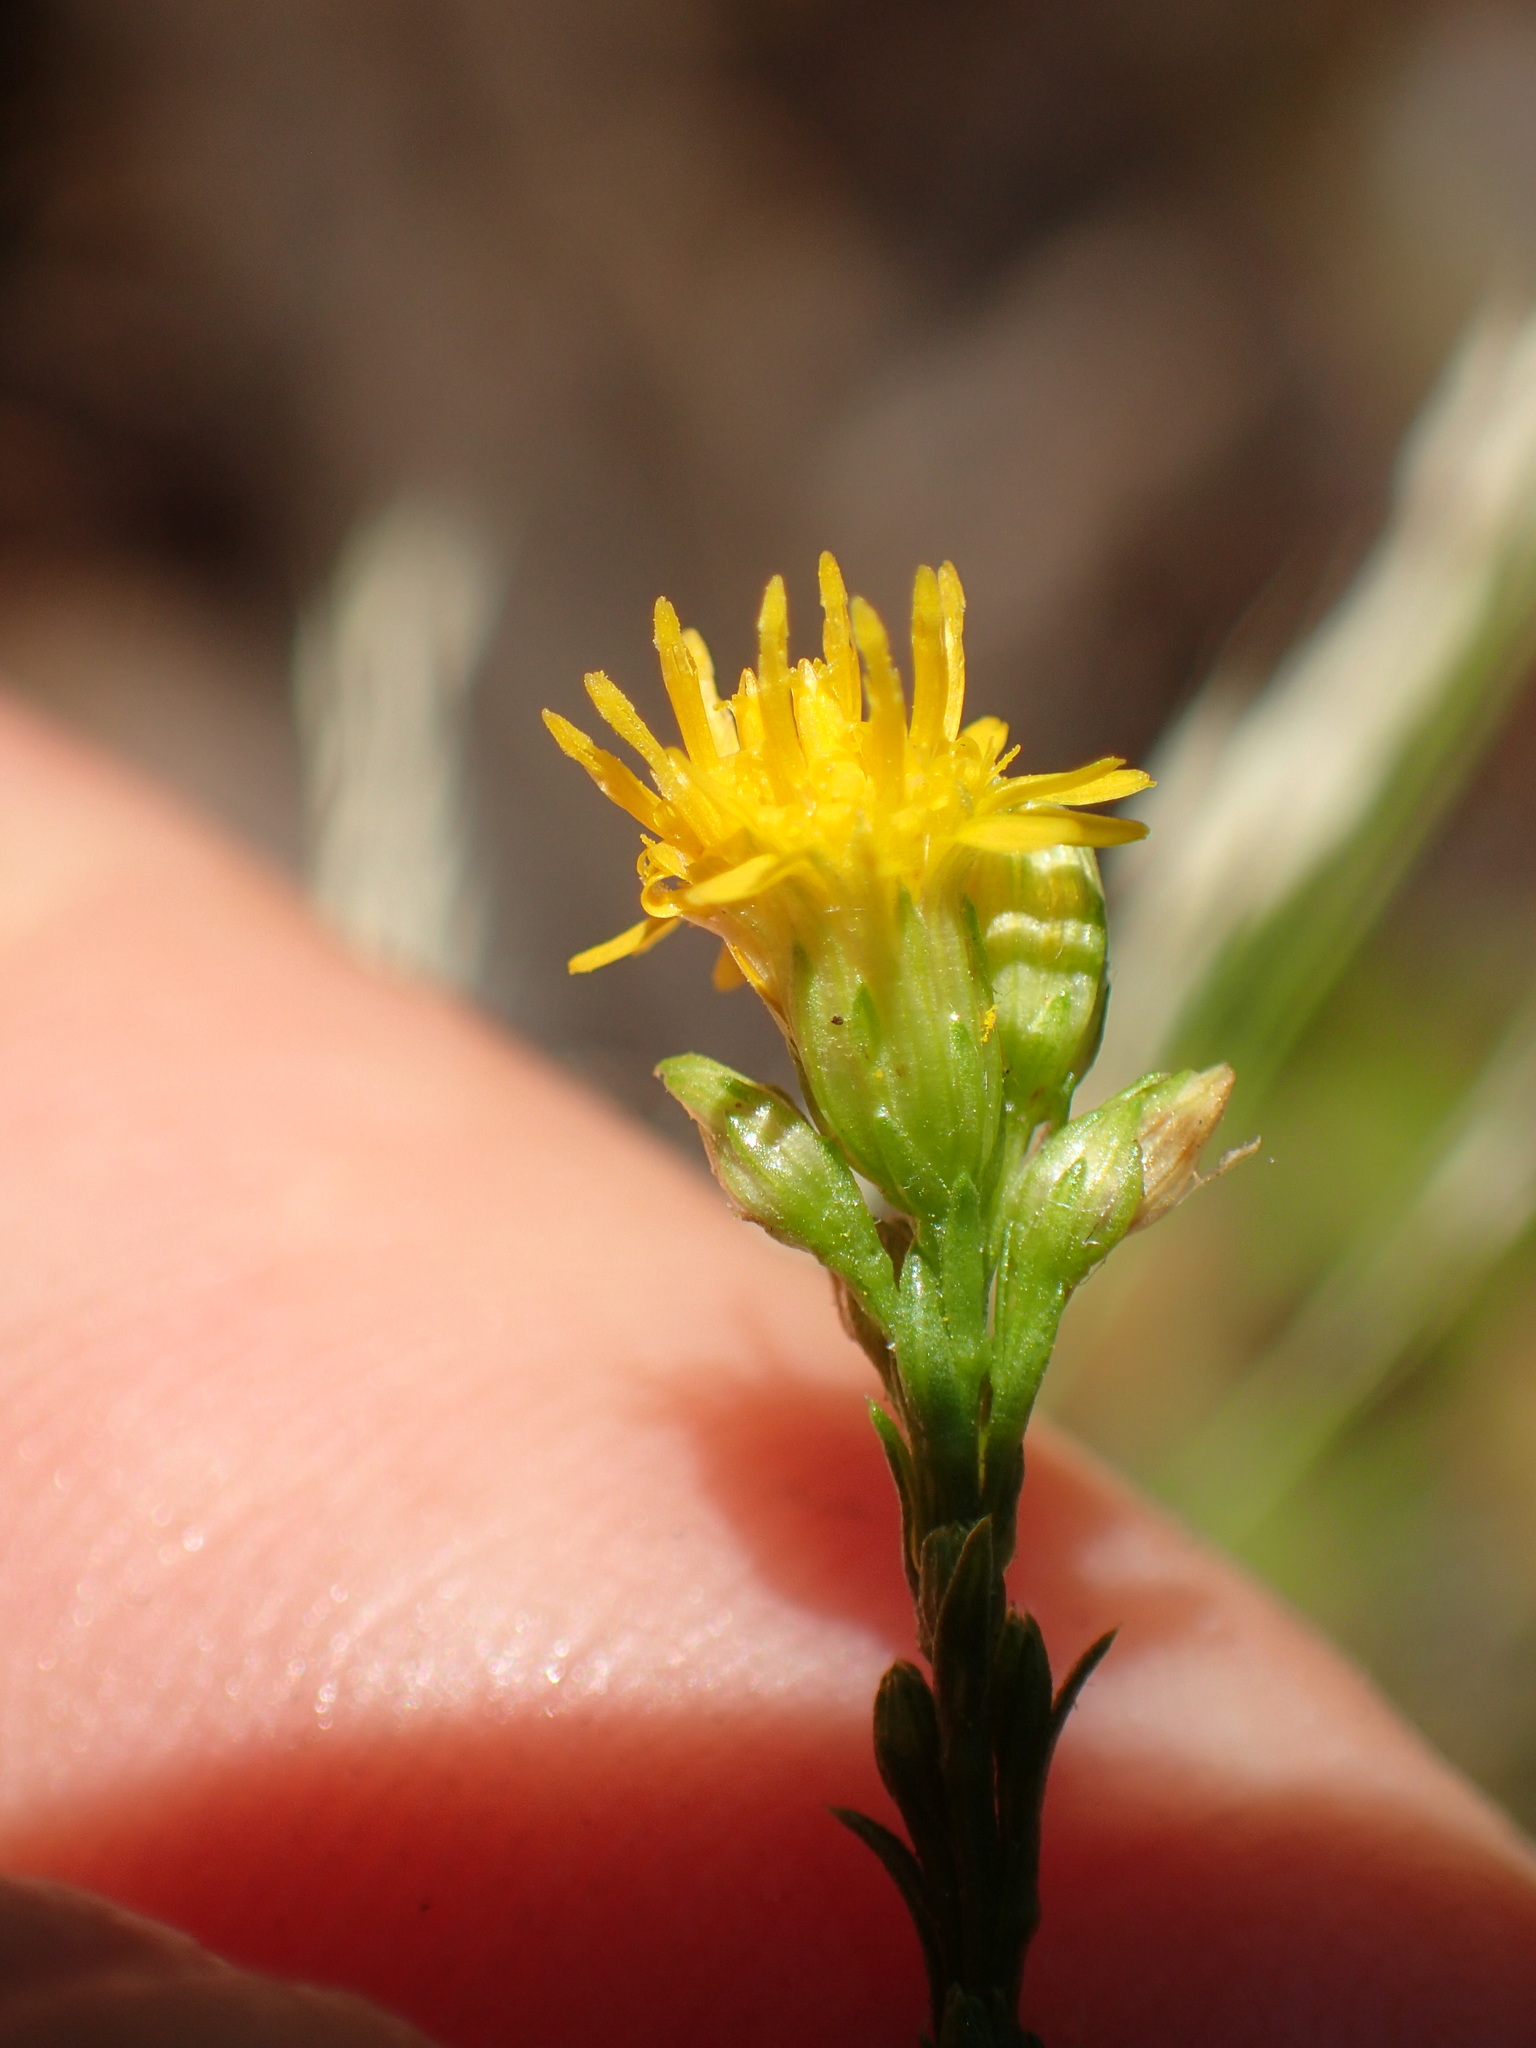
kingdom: Plantae
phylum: Tracheophyta
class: Magnoliopsida
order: Asterales
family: Asteraceae
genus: Euthamia
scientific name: Euthamia occidentalis
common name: Western goldentop
